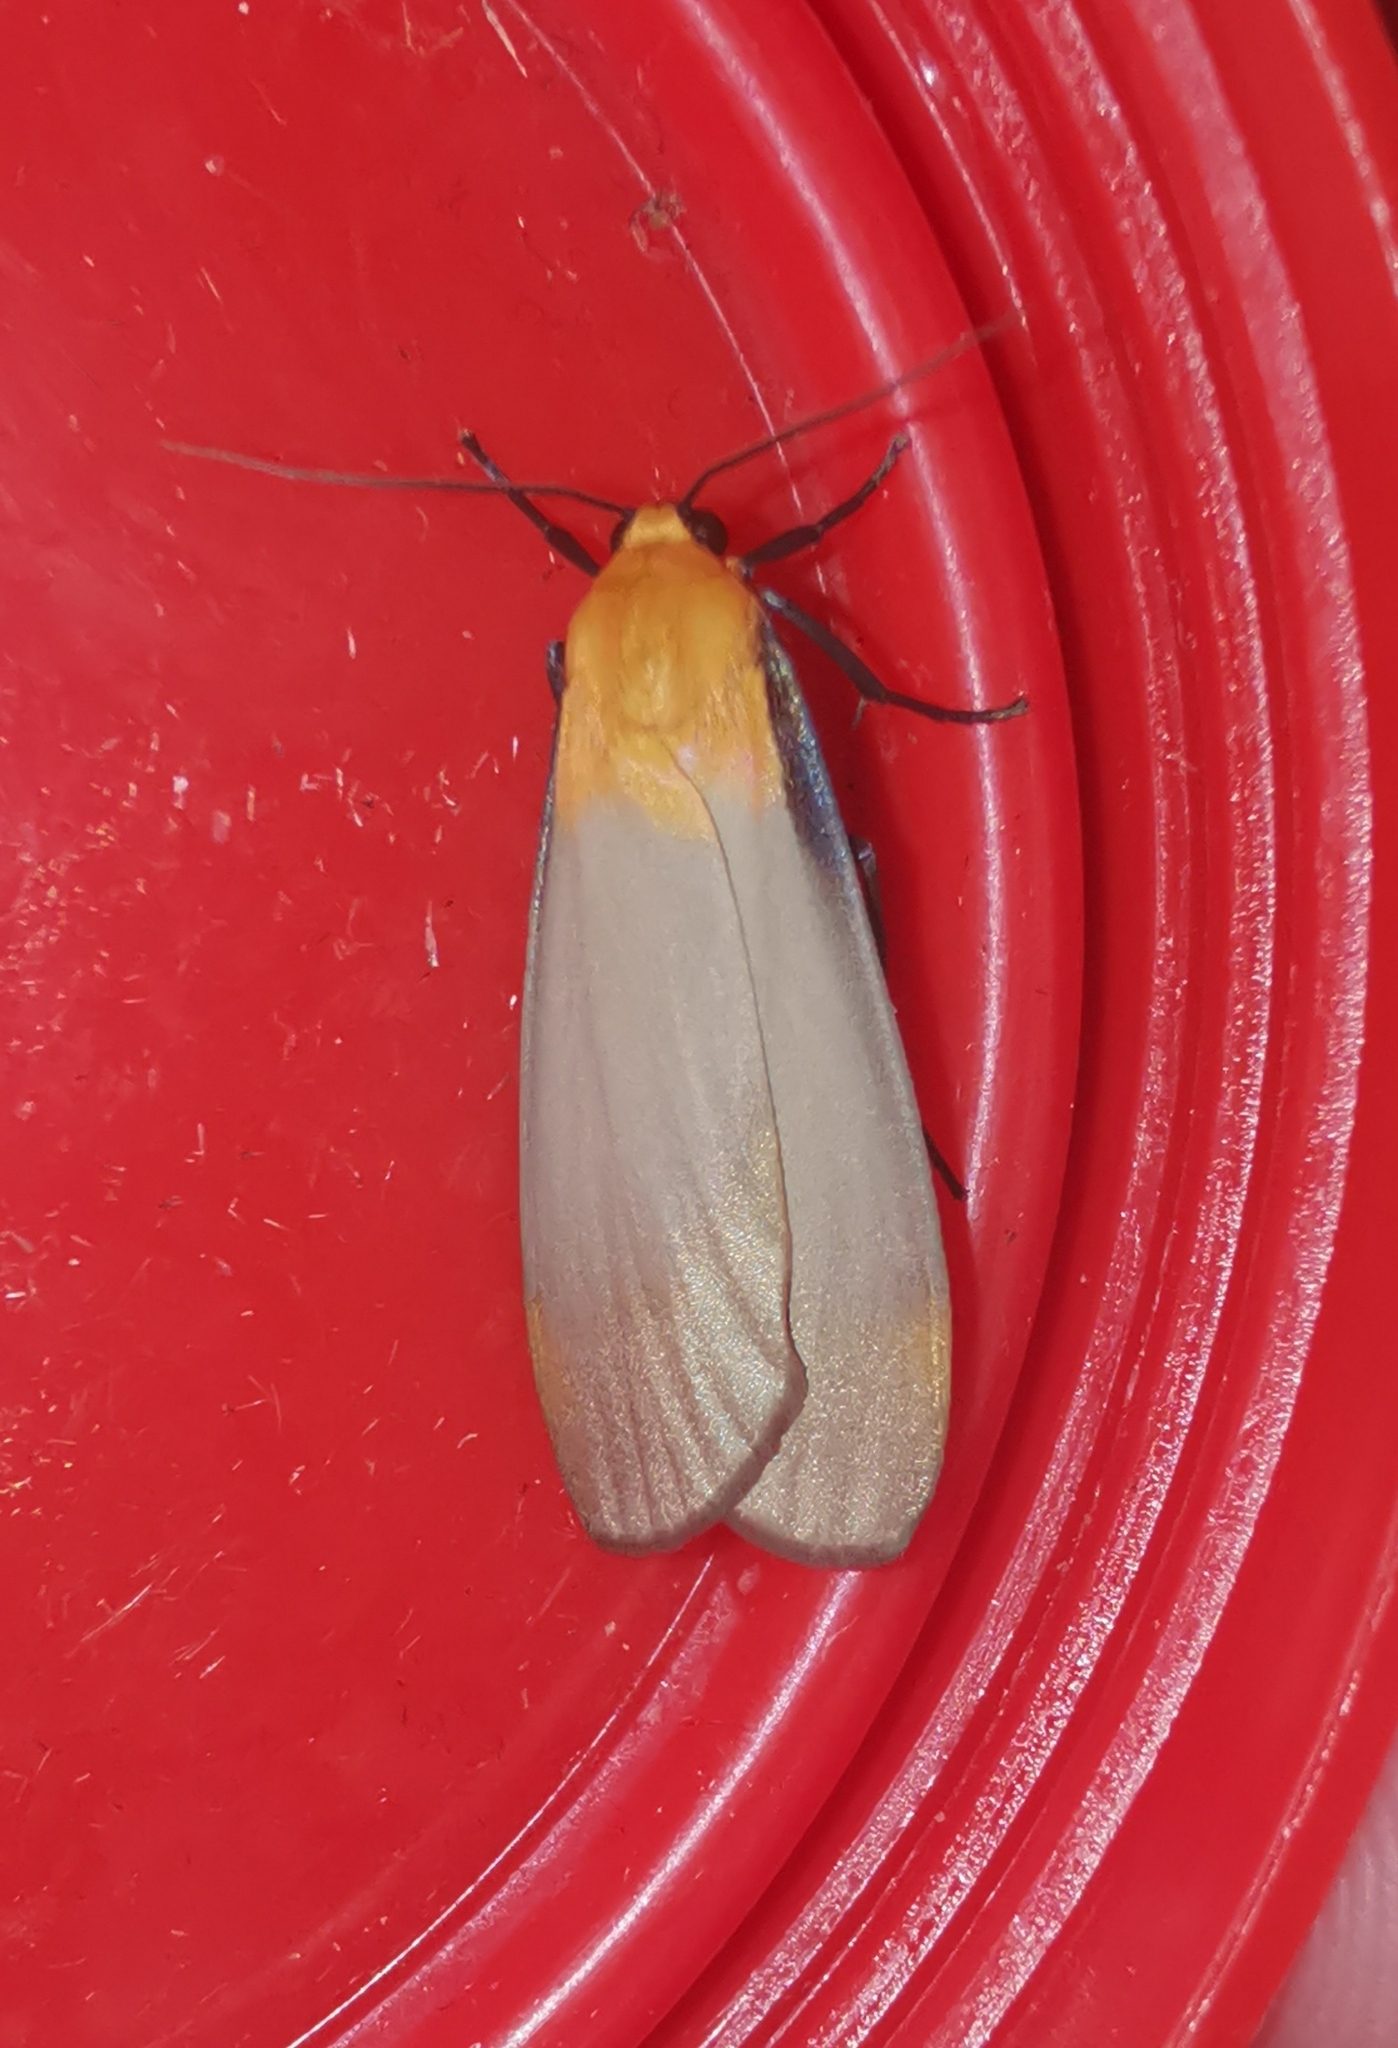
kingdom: Animalia
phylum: Arthropoda
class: Insecta
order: Lepidoptera
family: Erebidae
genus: Lithosia
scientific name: Lithosia quadra
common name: Four-spotted footman
